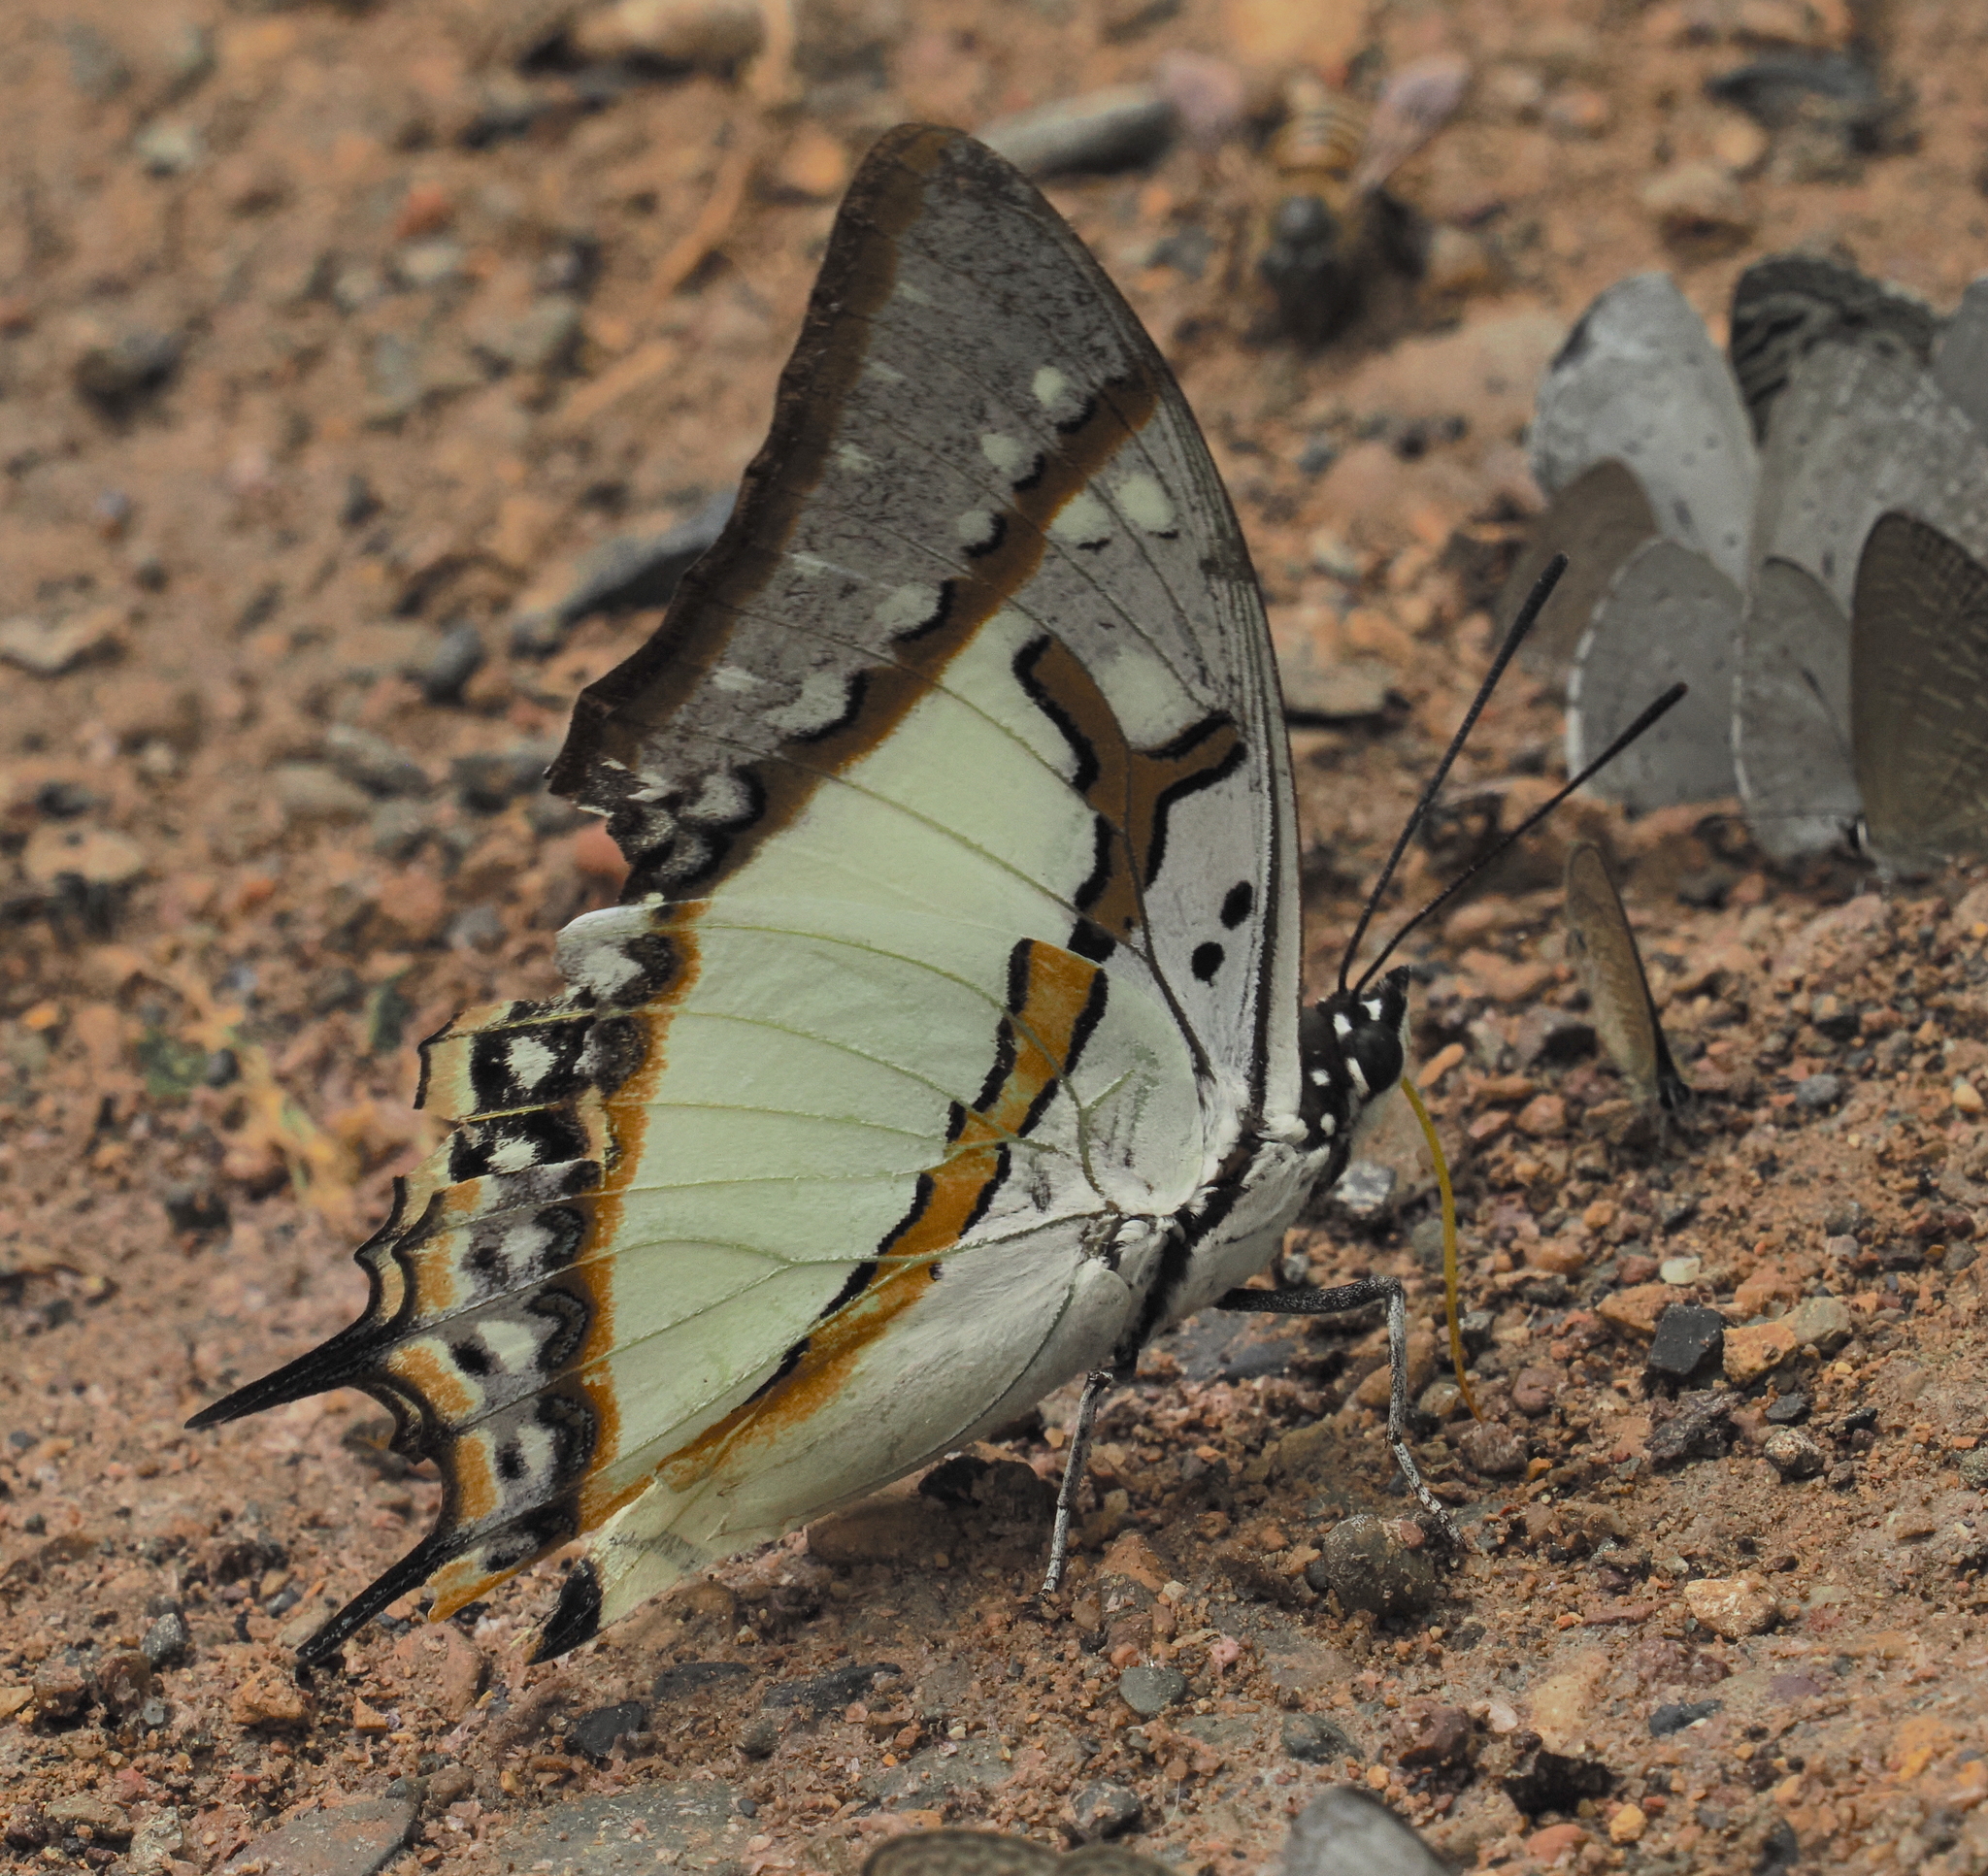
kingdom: Animalia
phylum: Arthropoda
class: Insecta
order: Lepidoptera
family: Nymphalidae
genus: Polyura
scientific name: Polyura eudamippus
